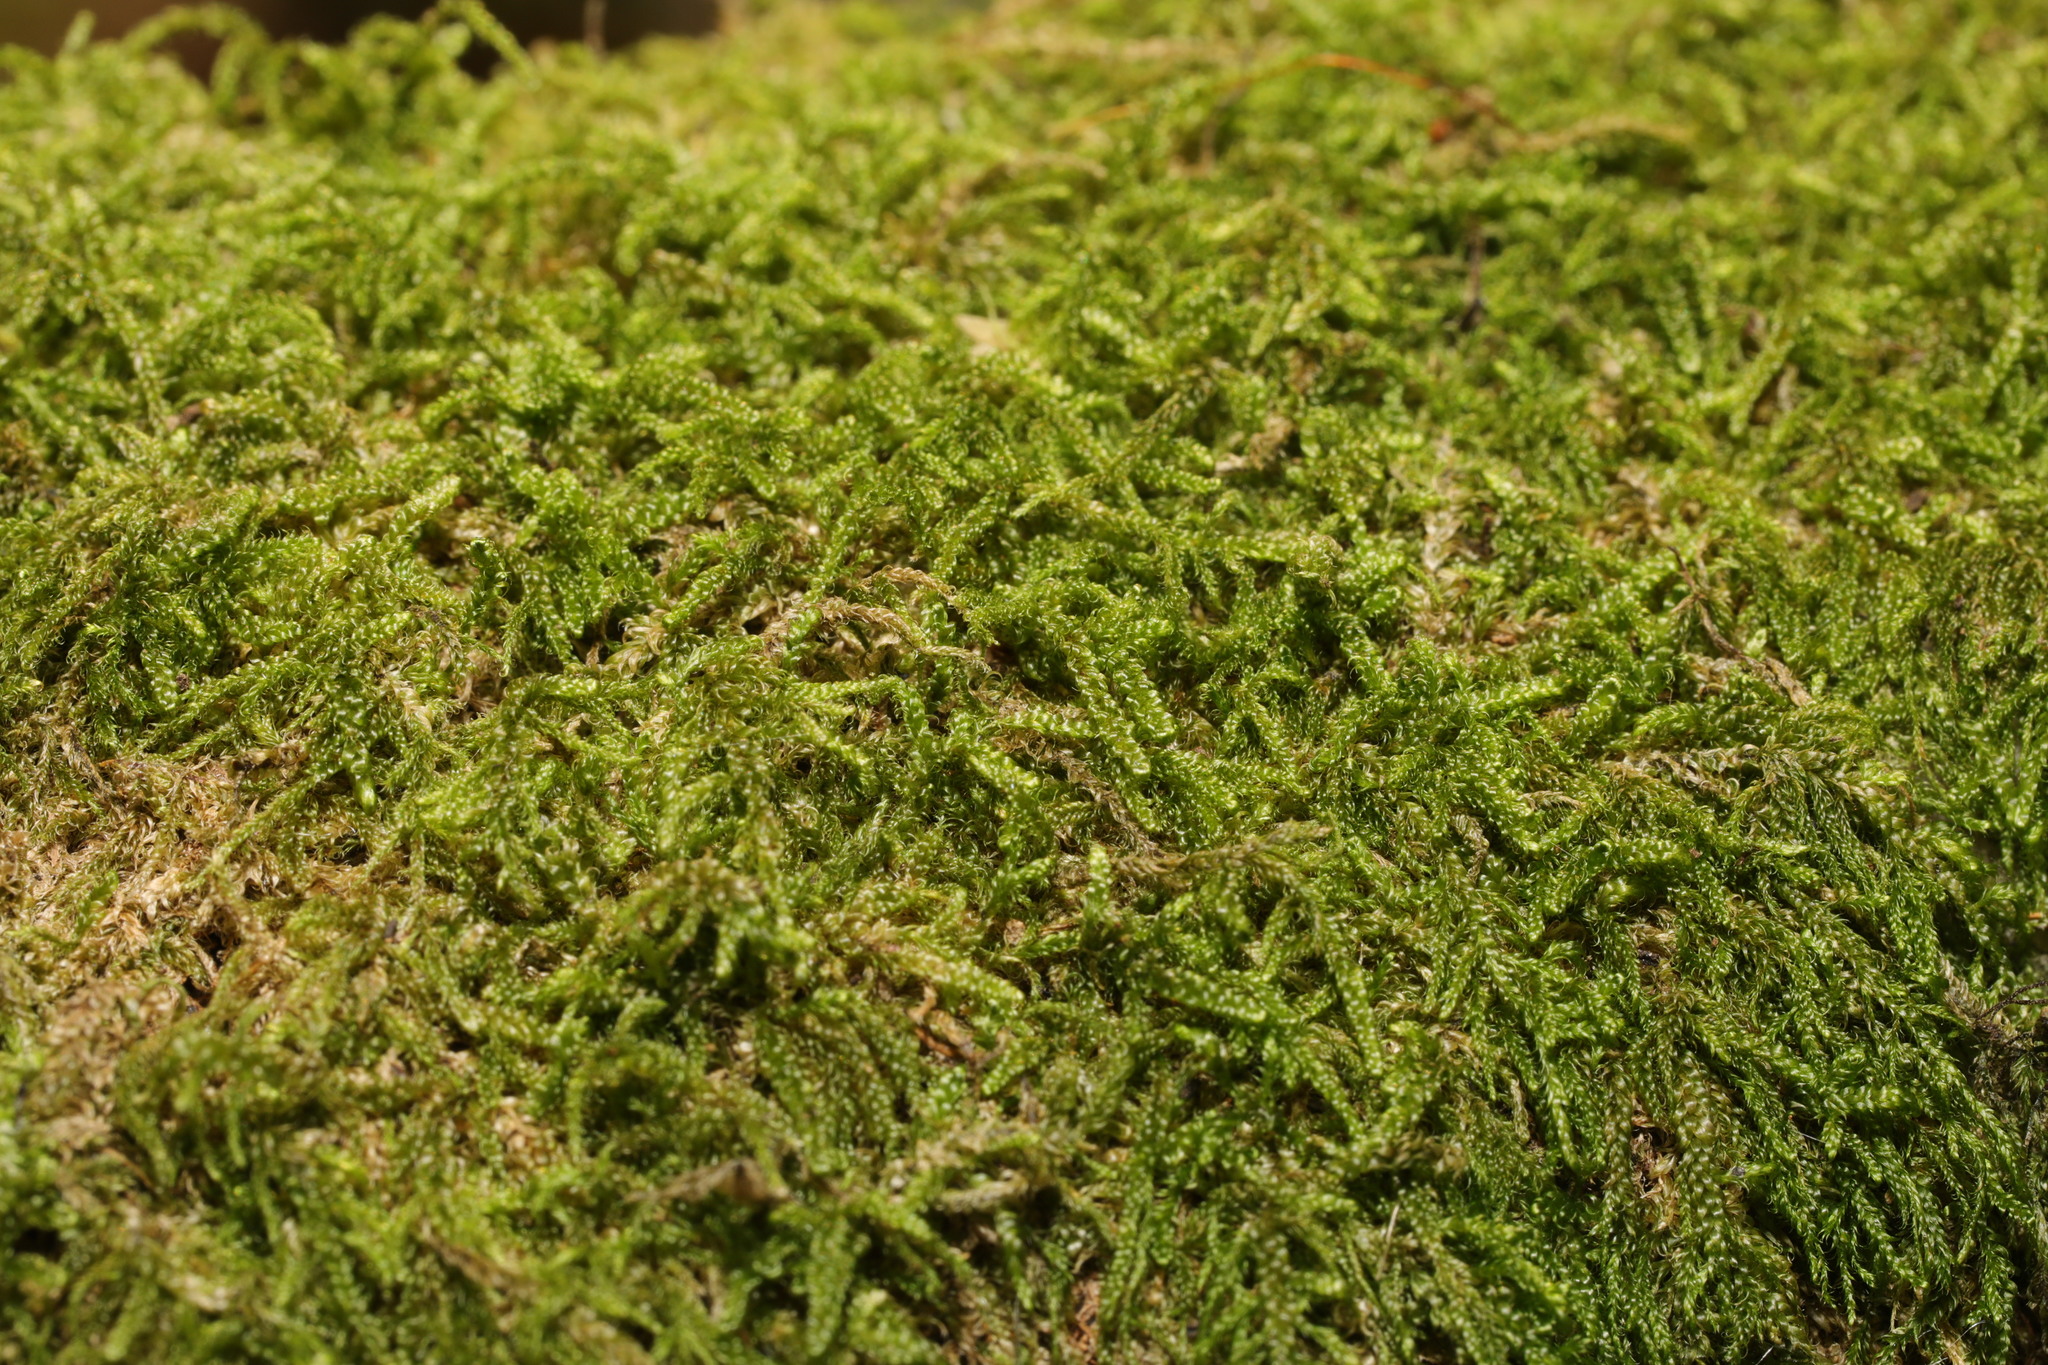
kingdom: Plantae
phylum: Bryophyta
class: Bryopsida
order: Hypnales
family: Hypnaceae
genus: Hypnum
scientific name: Hypnum cupressiforme
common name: Cypress-leaved plait-moss
